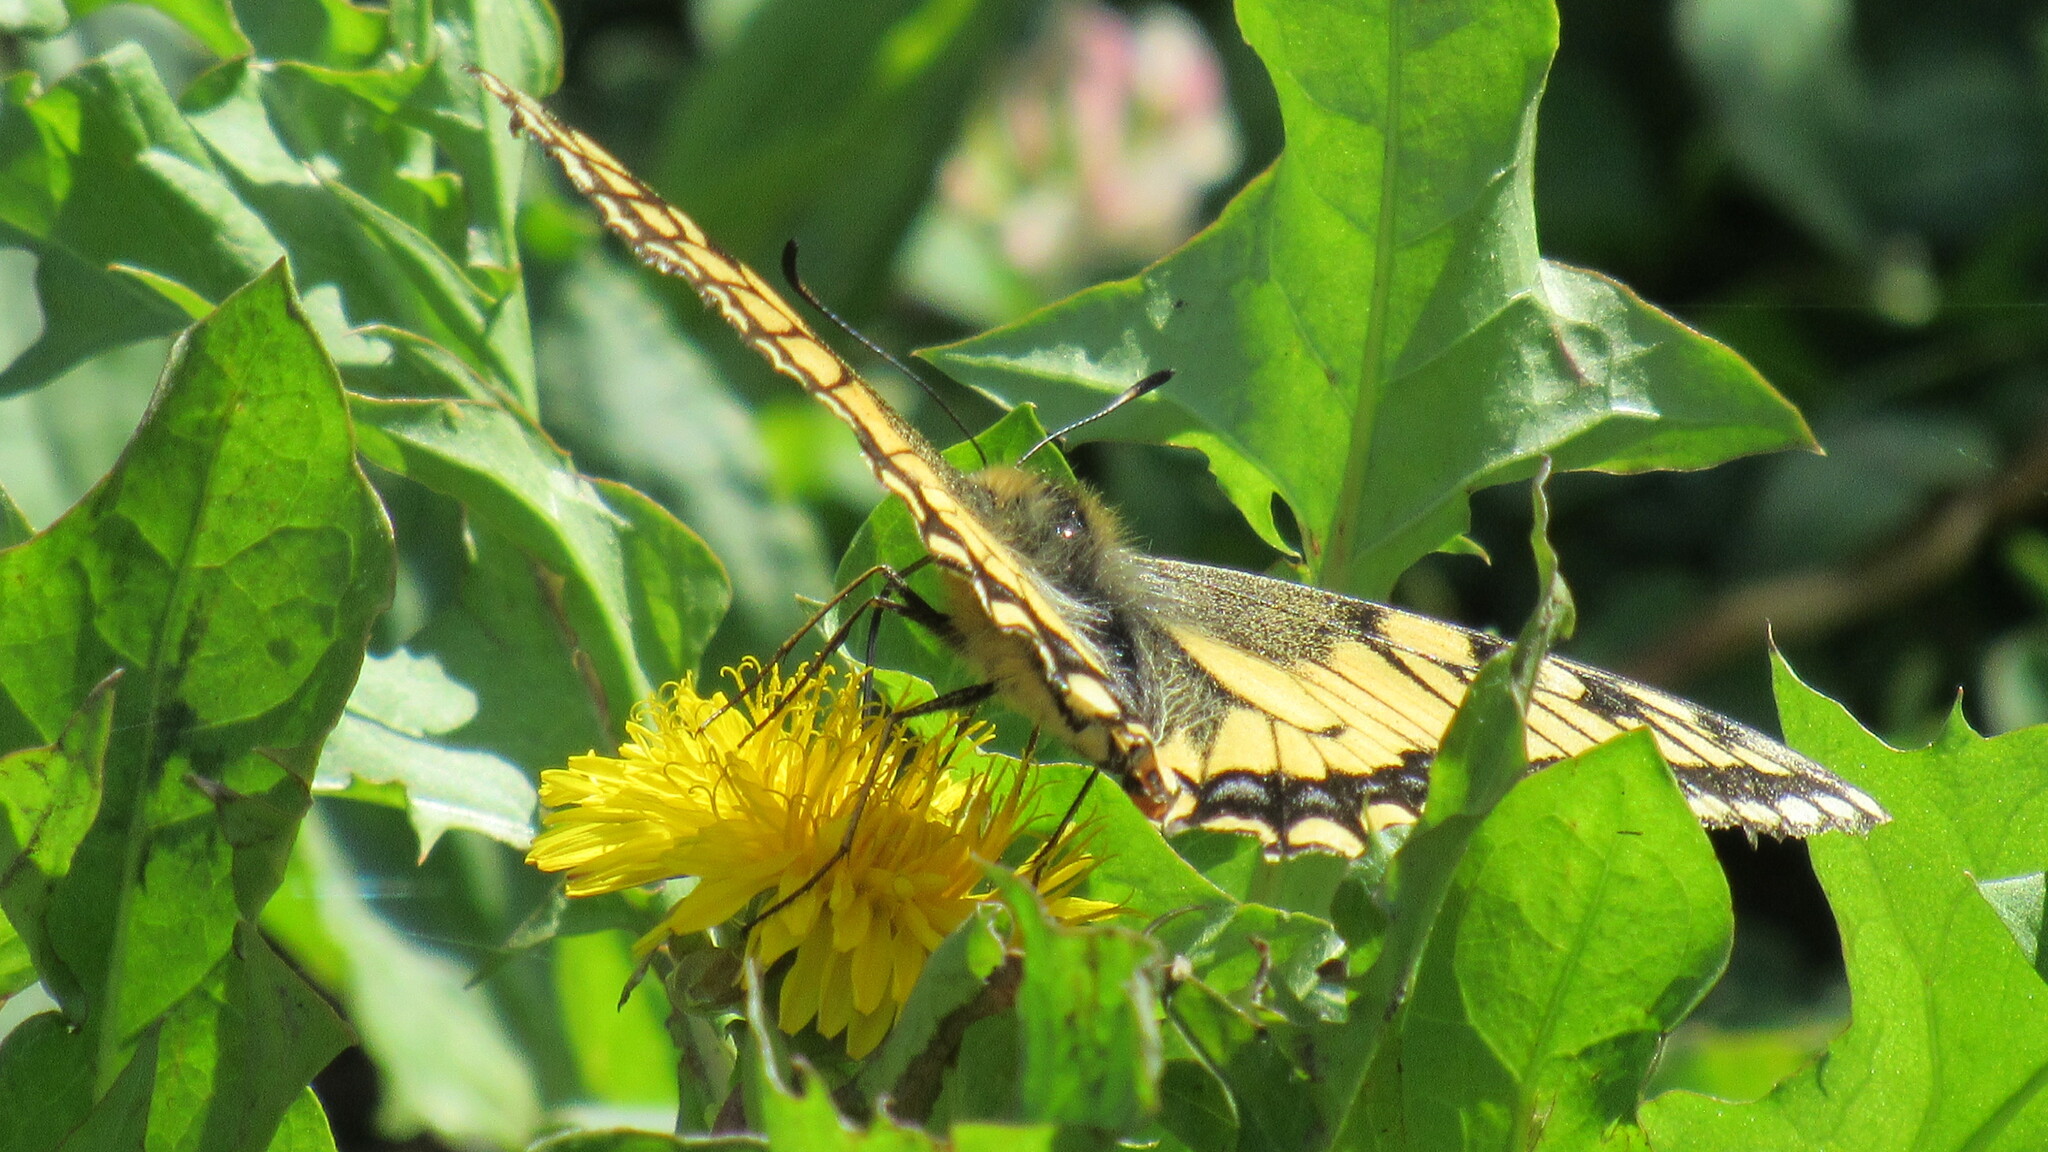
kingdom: Animalia
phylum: Arthropoda
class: Insecta
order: Lepidoptera
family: Papilionidae
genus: Papilio
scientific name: Papilio machaon
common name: Swallowtail
